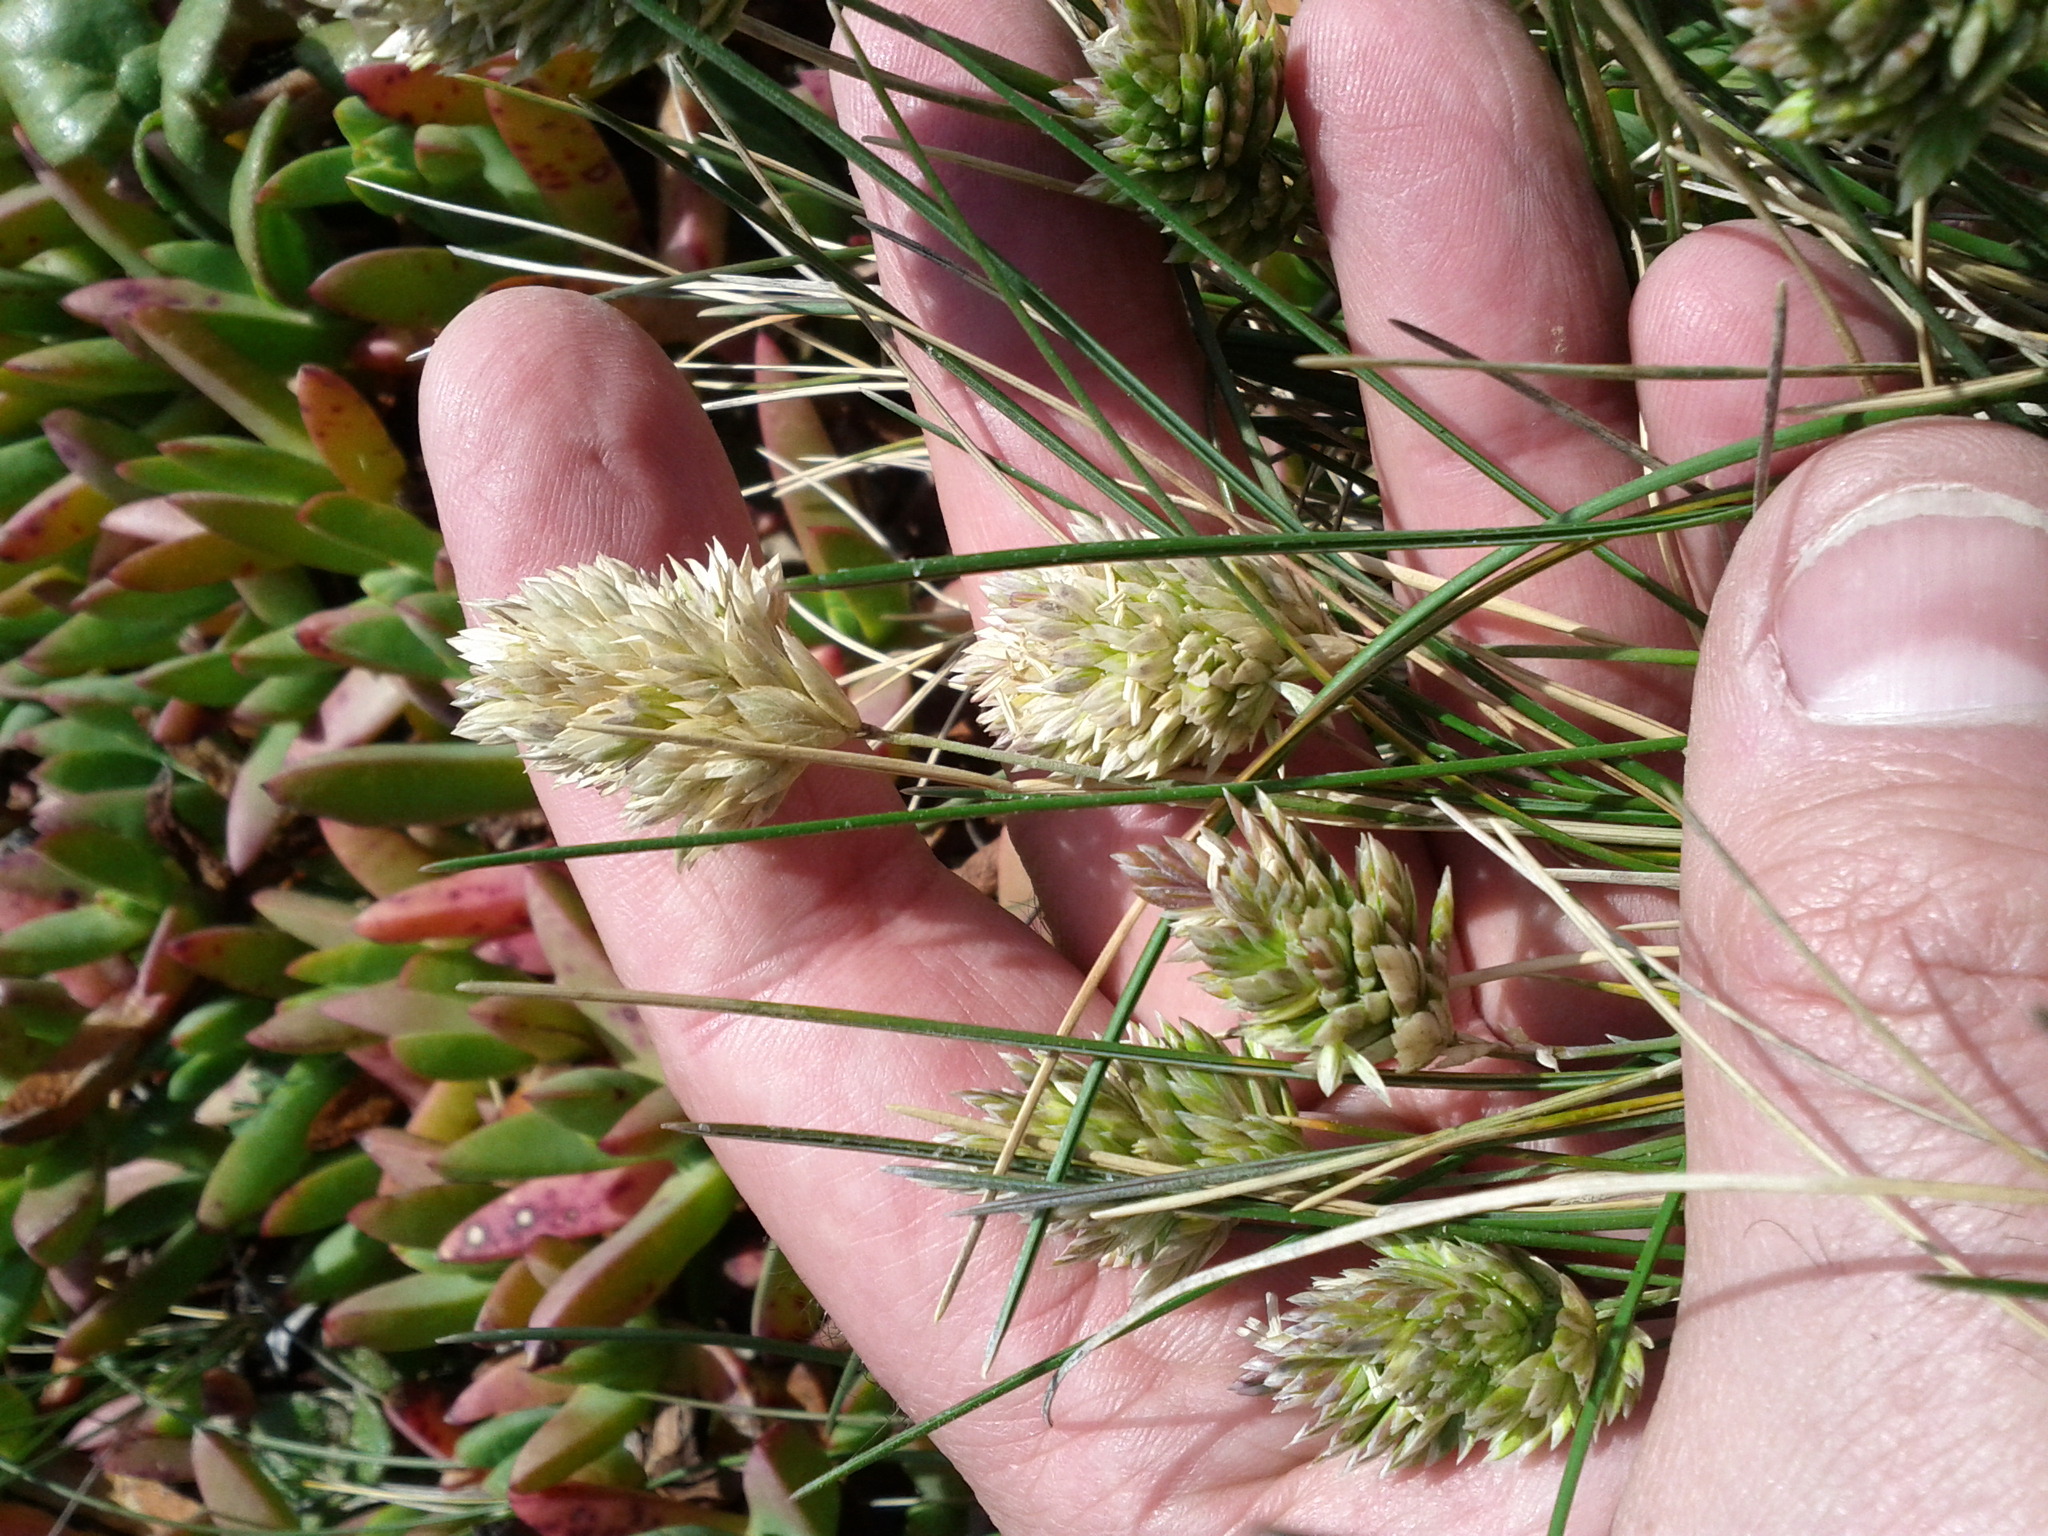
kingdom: Plantae
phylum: Tracheophyta
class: Liliopsida
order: Poales
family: Poaceae
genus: Poa
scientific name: Poa douglasii
